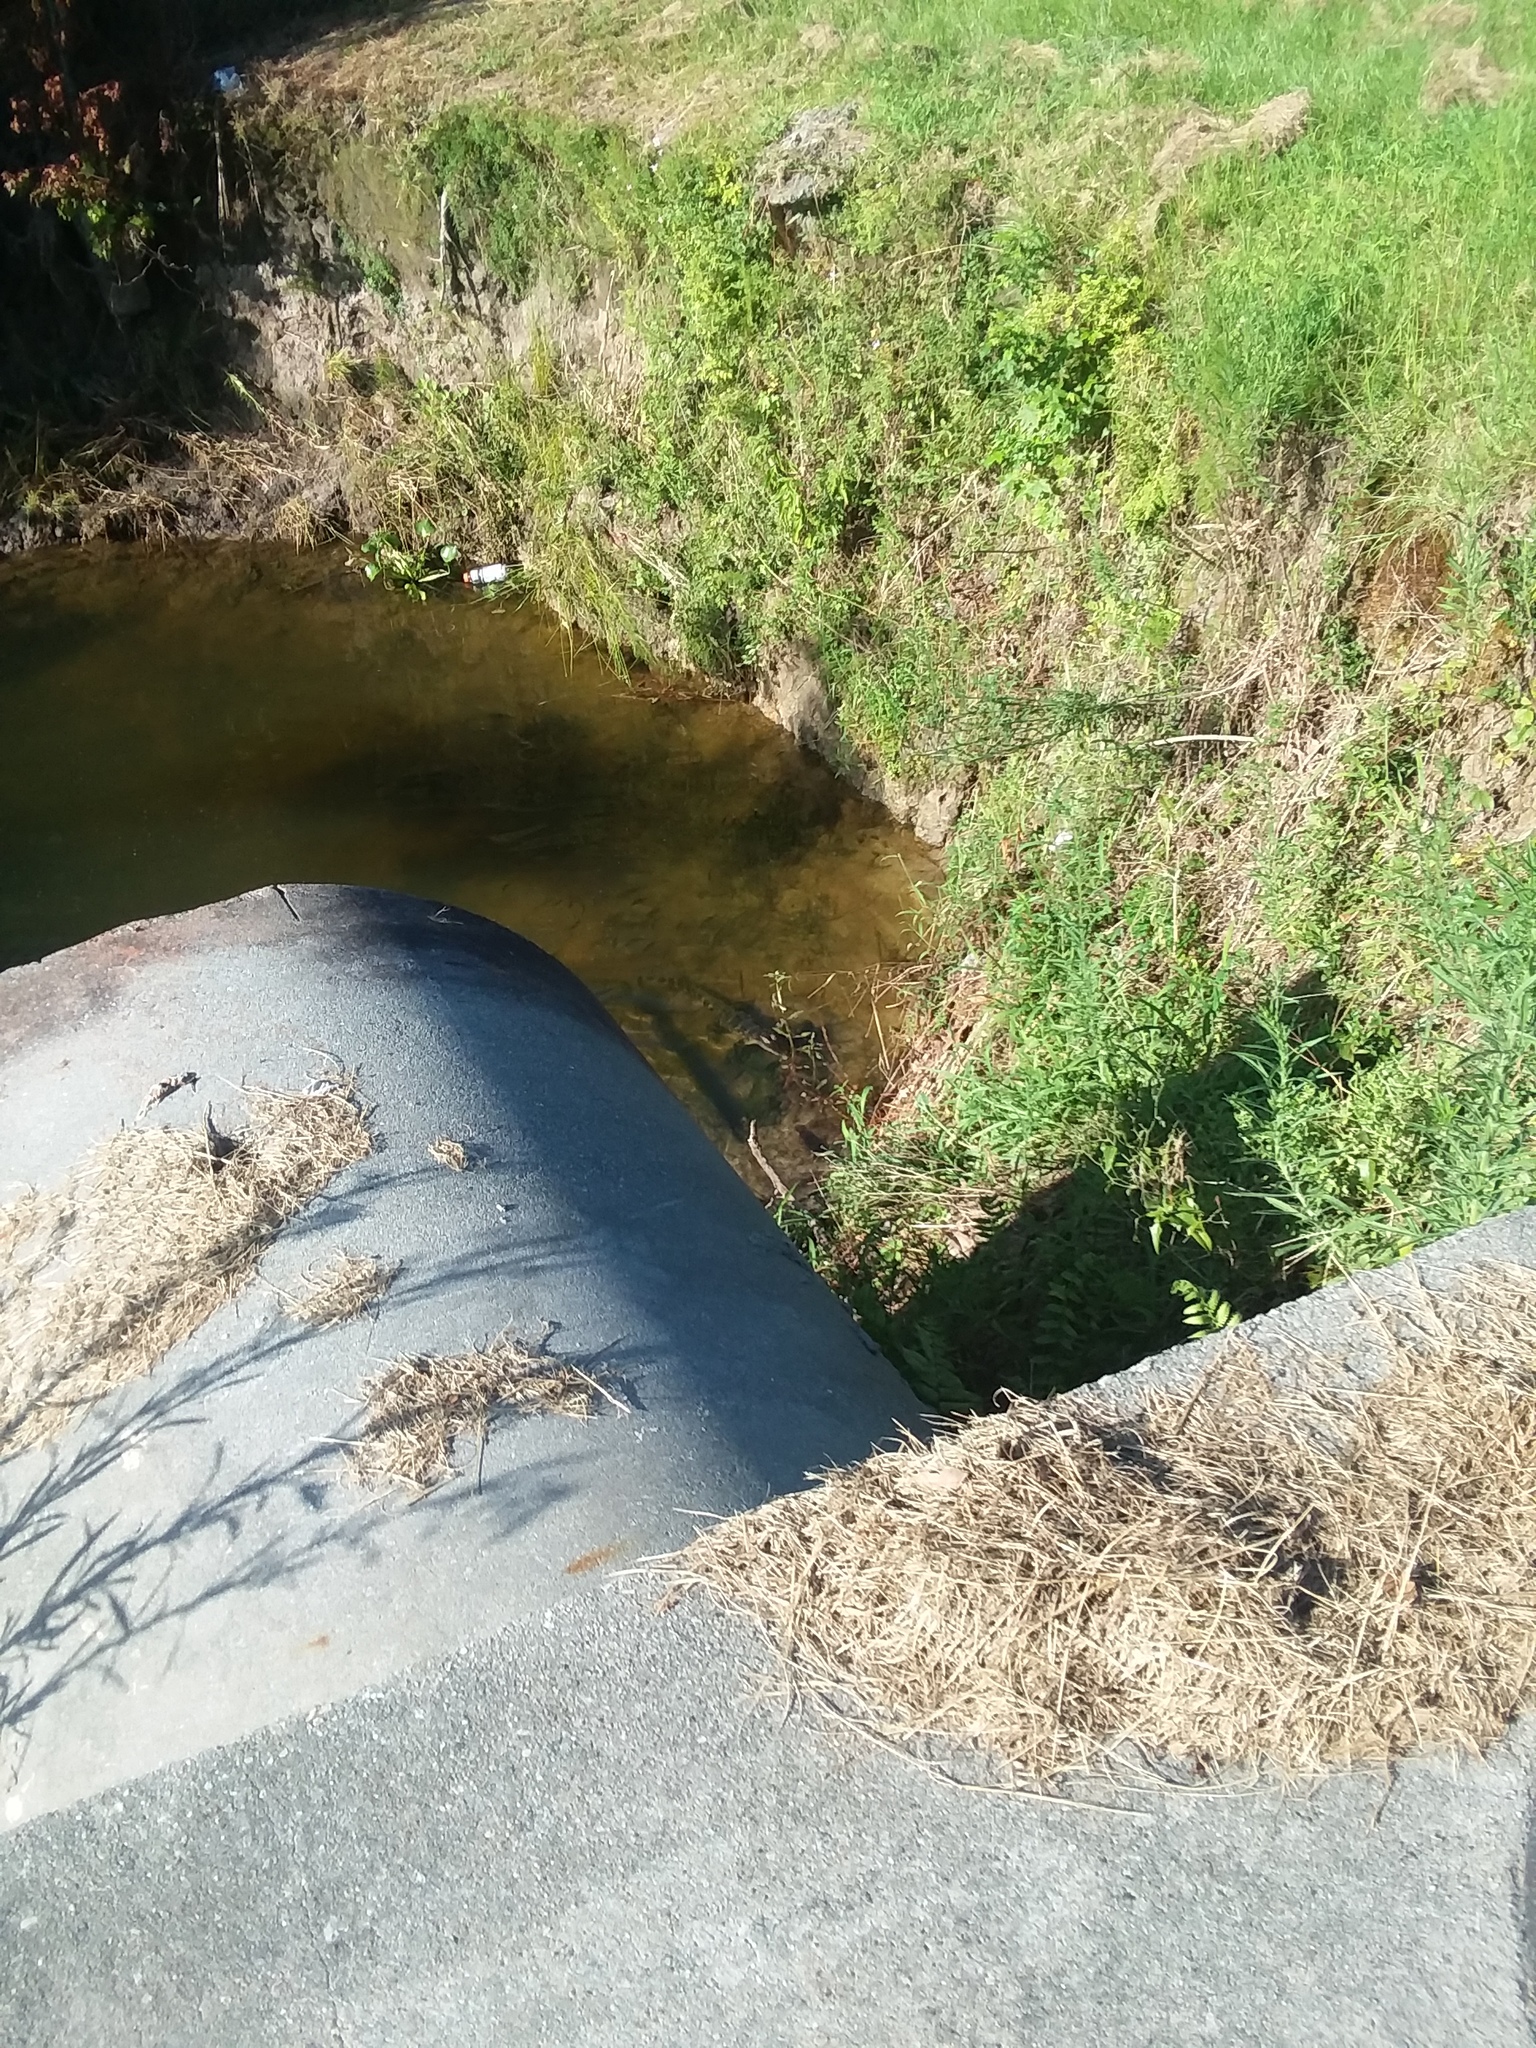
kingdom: Animalia
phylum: Chordata
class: Crocodylia
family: Alligatoridae
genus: Alligator
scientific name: Alligator mississippiensis
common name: American alligator
